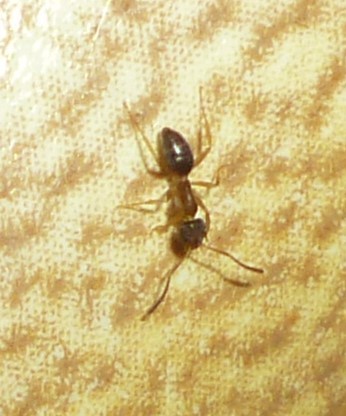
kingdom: Animalia
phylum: Arthropoda
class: Insecta
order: Hymenoptera
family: Formicidae
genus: Tapinoma
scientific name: Tapinoma sessile
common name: Odorous house ant
